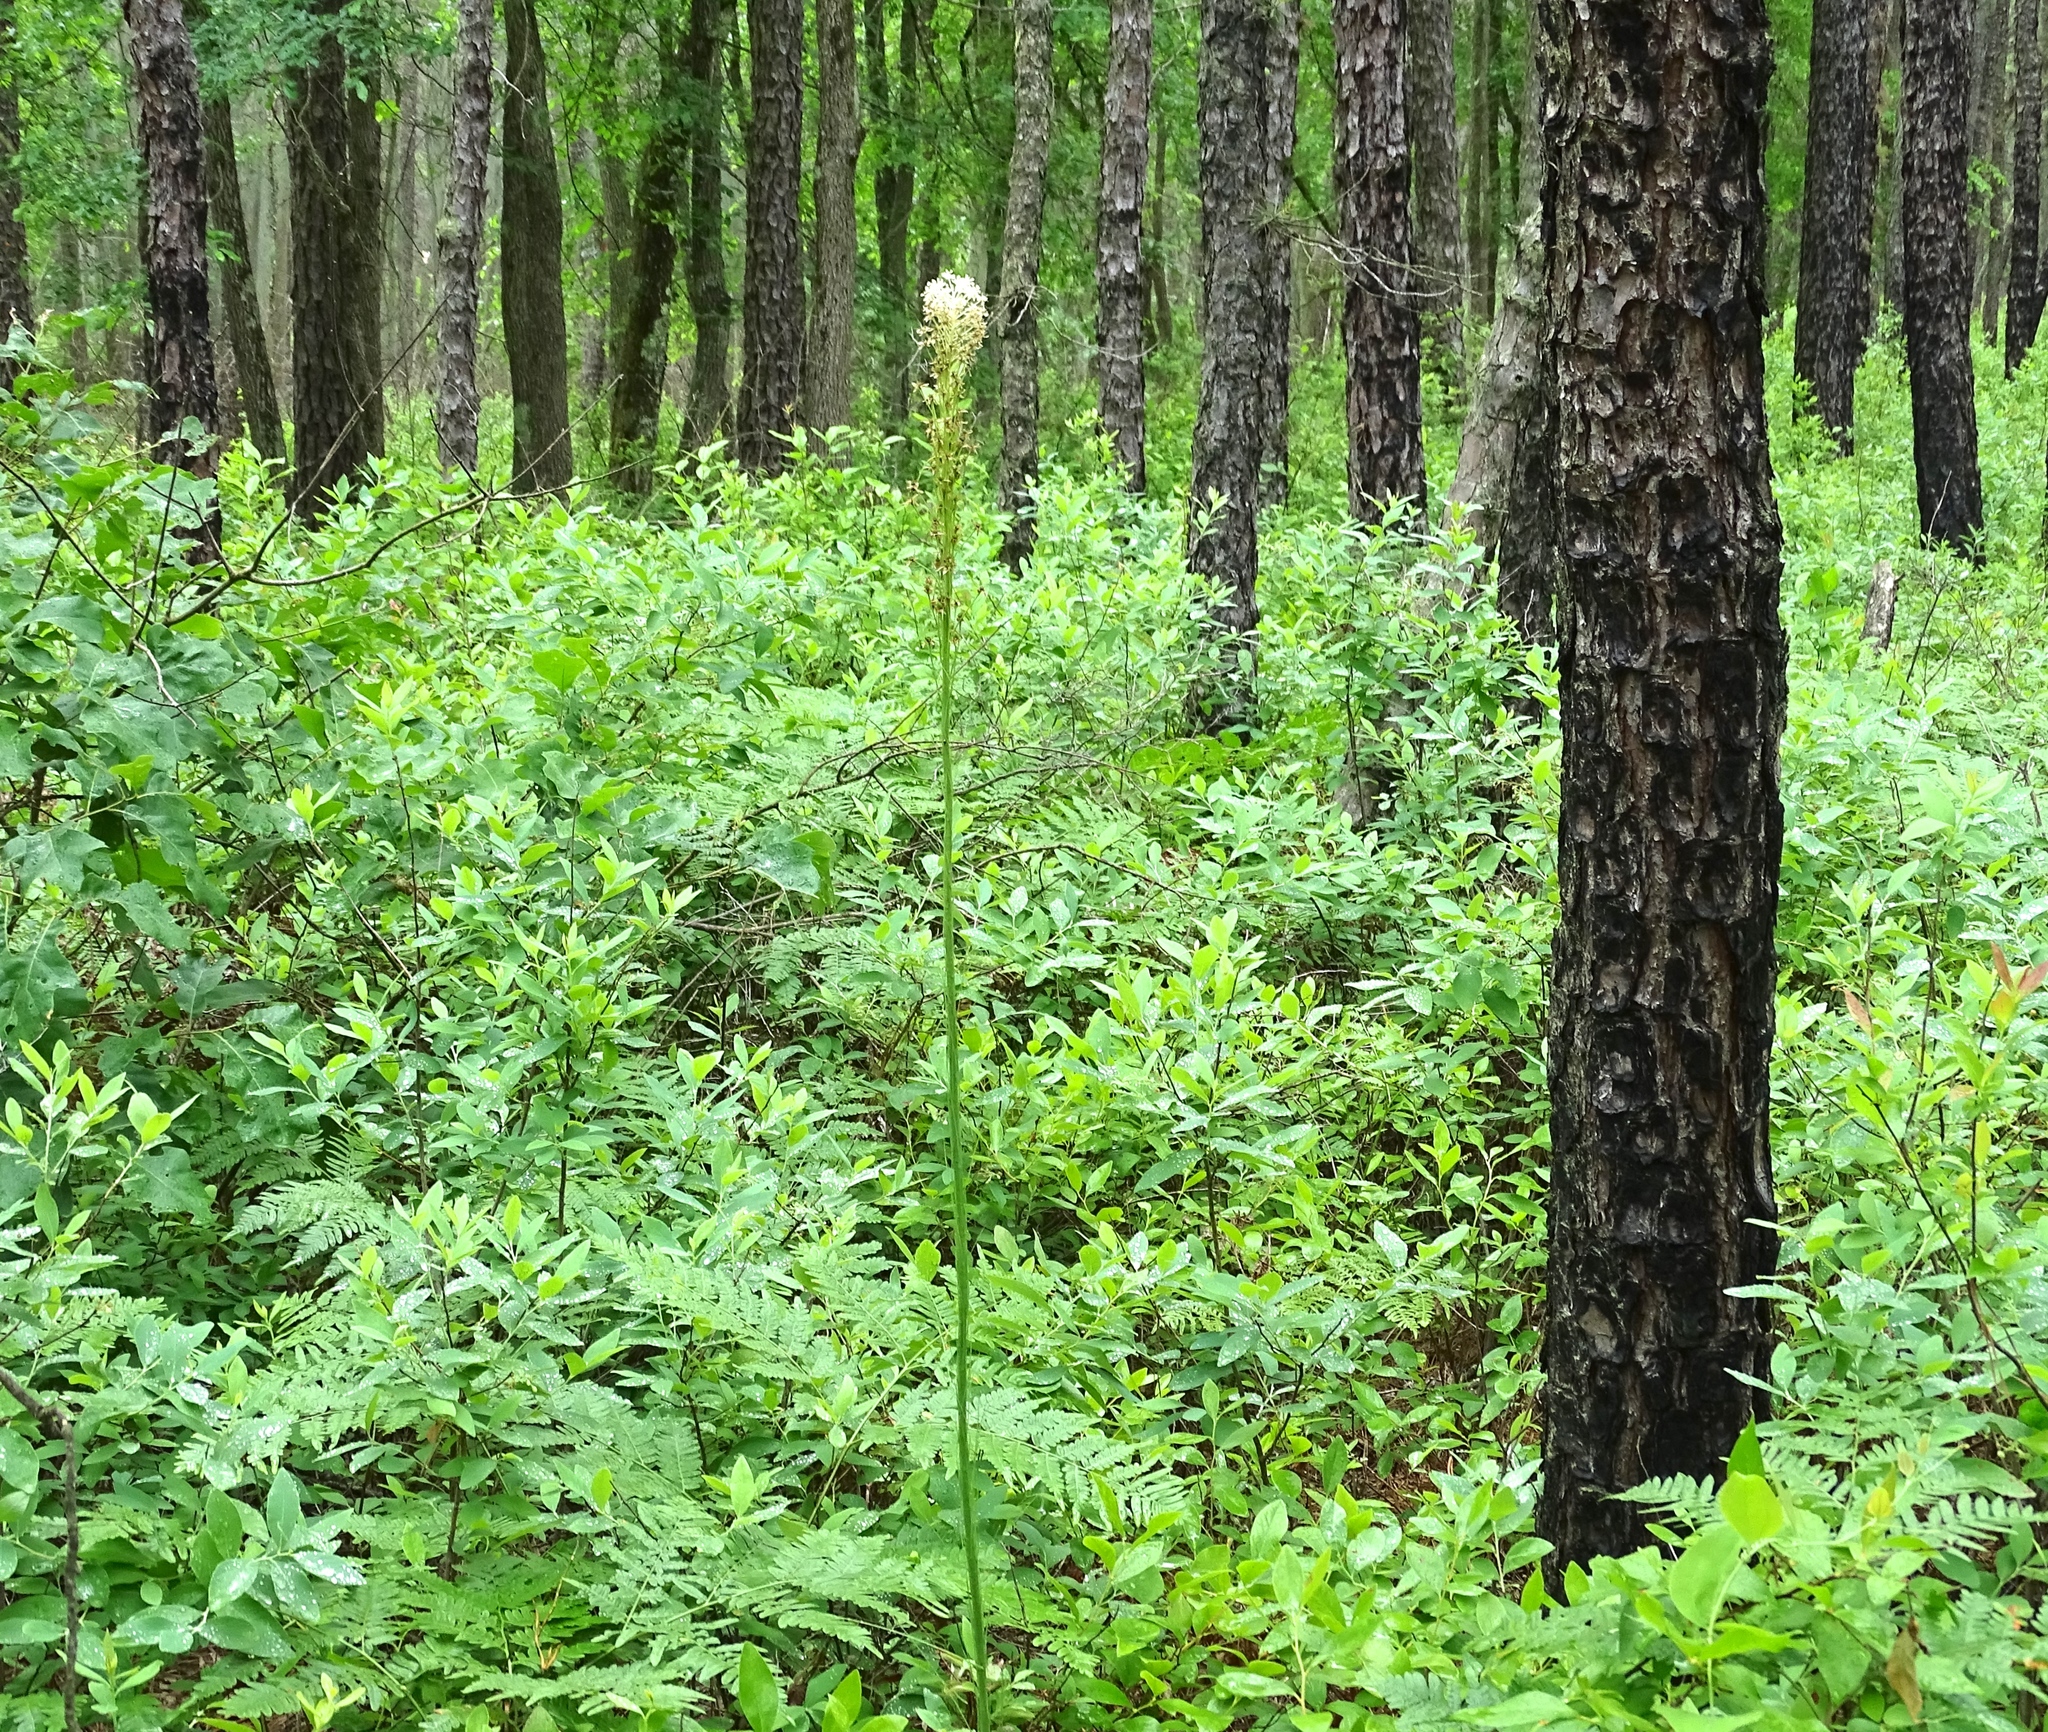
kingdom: Plantae
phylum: Tracheophyta
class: Liliopsida
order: Liliales
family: Melanthiaceae
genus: Xerophyllum
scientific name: Xerophyllum asphodeloides
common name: Mountain-asphodel
